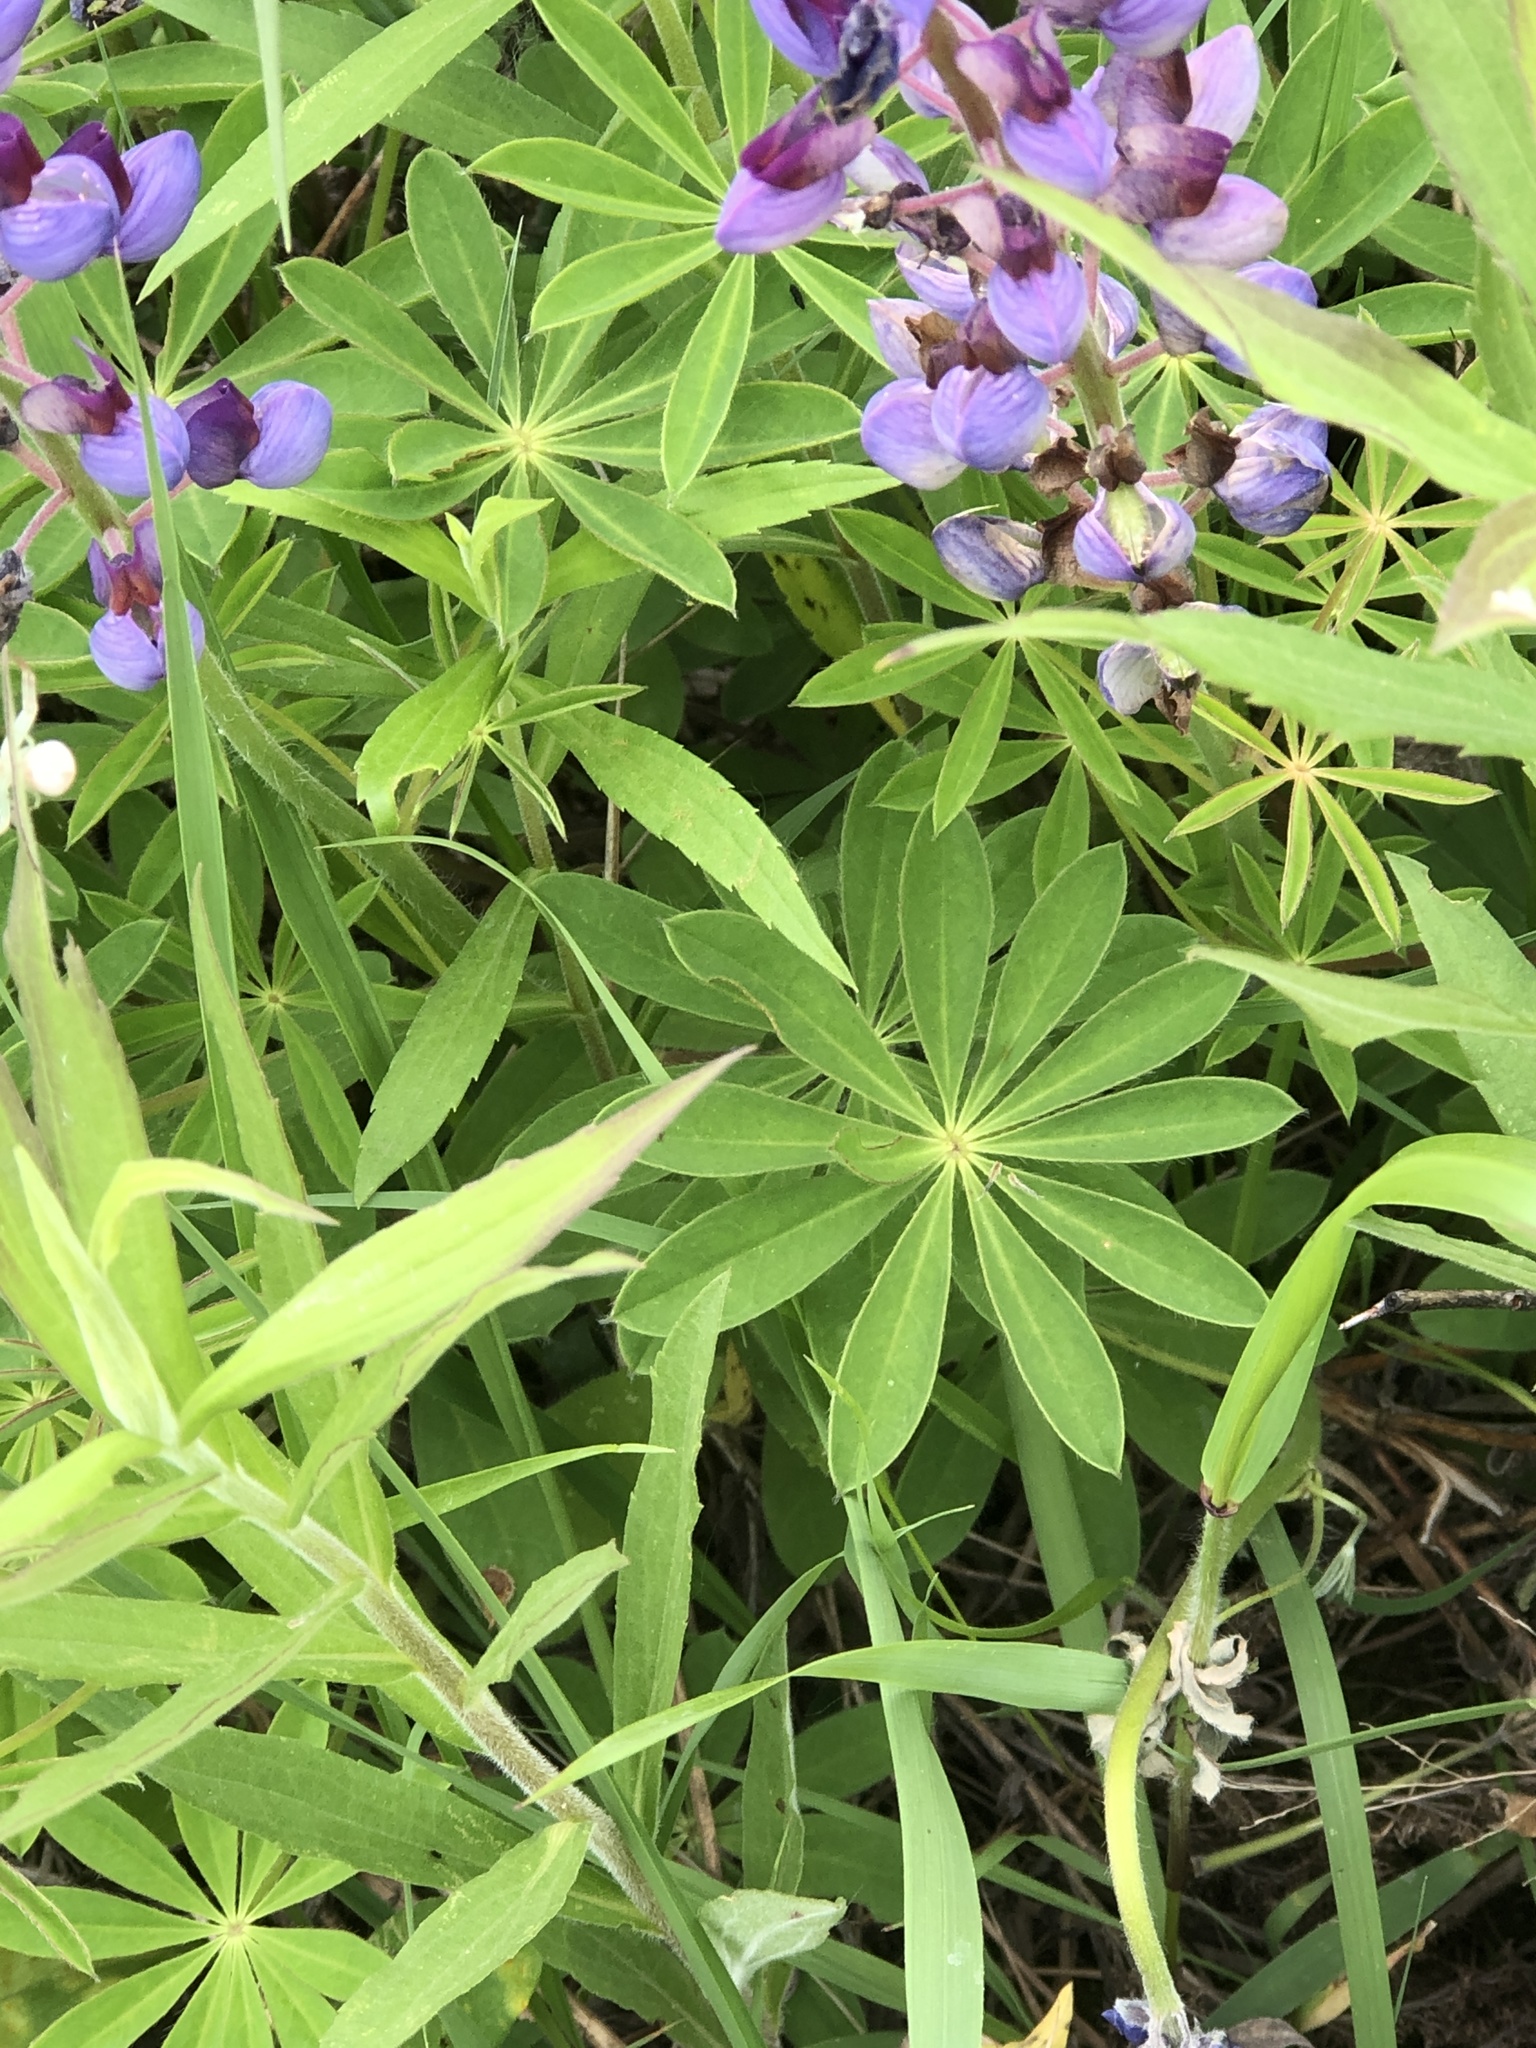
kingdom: Plantae
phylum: Tracheophyta
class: Magnoliopsida
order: Fabales
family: Fabaceae
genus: Lupinus
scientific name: Lupinus perennis
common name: Sundial lupine
